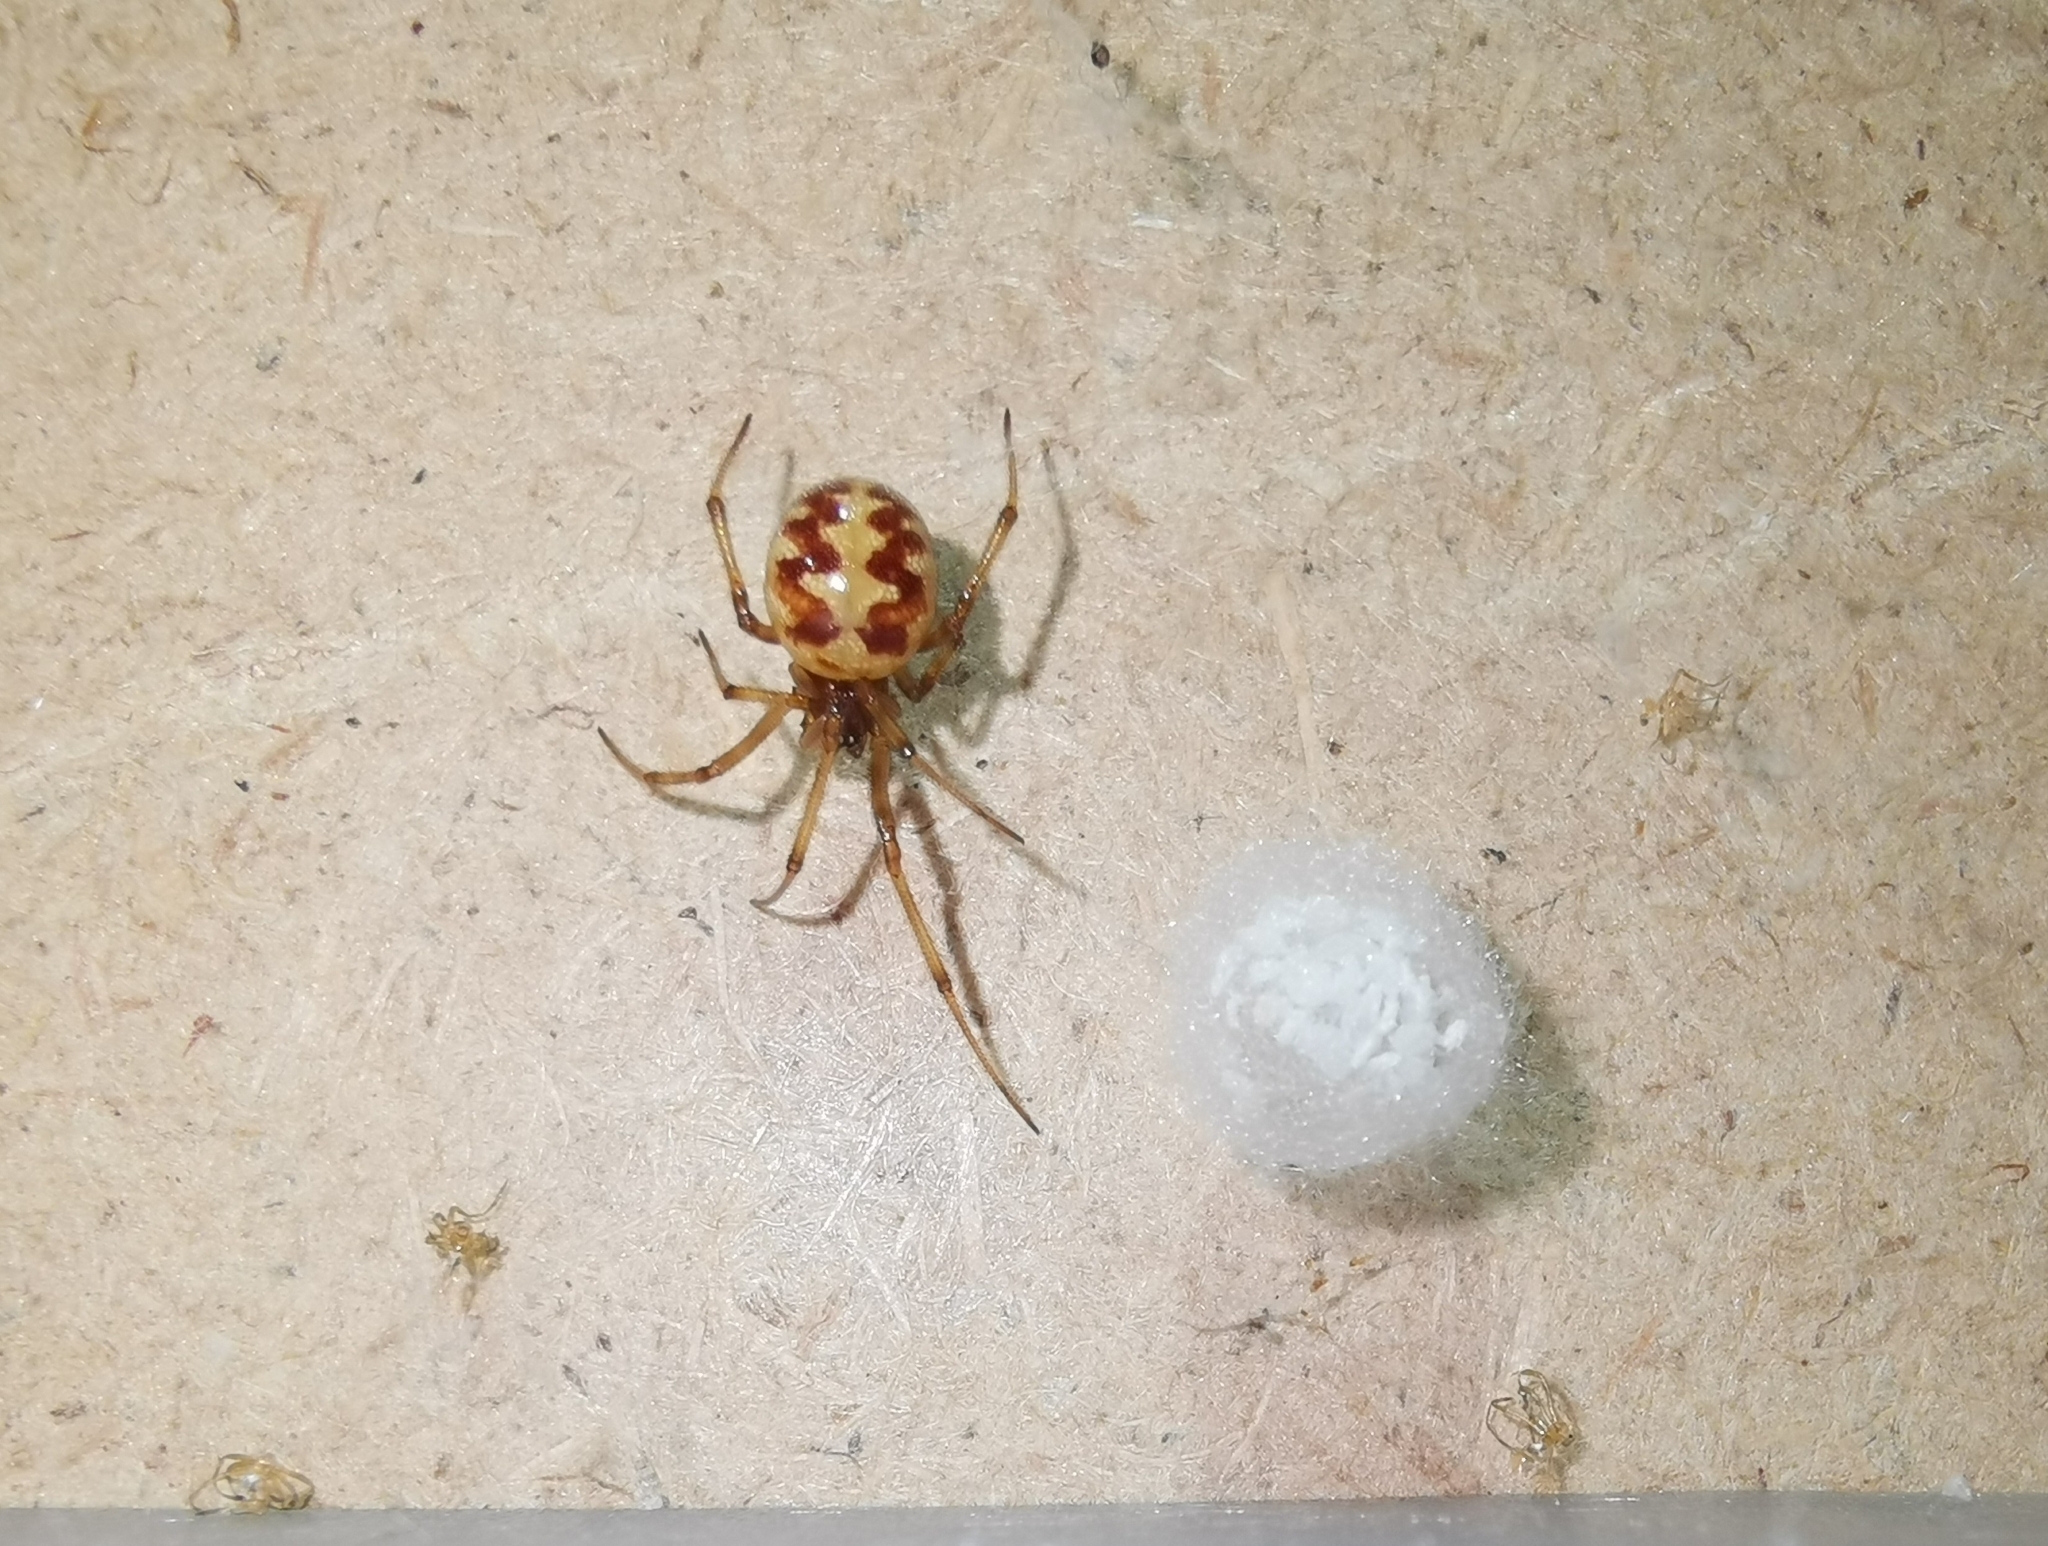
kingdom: Animalia
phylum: Arthropoda
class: Arachnida
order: Araneae
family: Theridiidae
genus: Steatoda
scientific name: Steatoda triangulosa
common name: Triangulate bud spider
